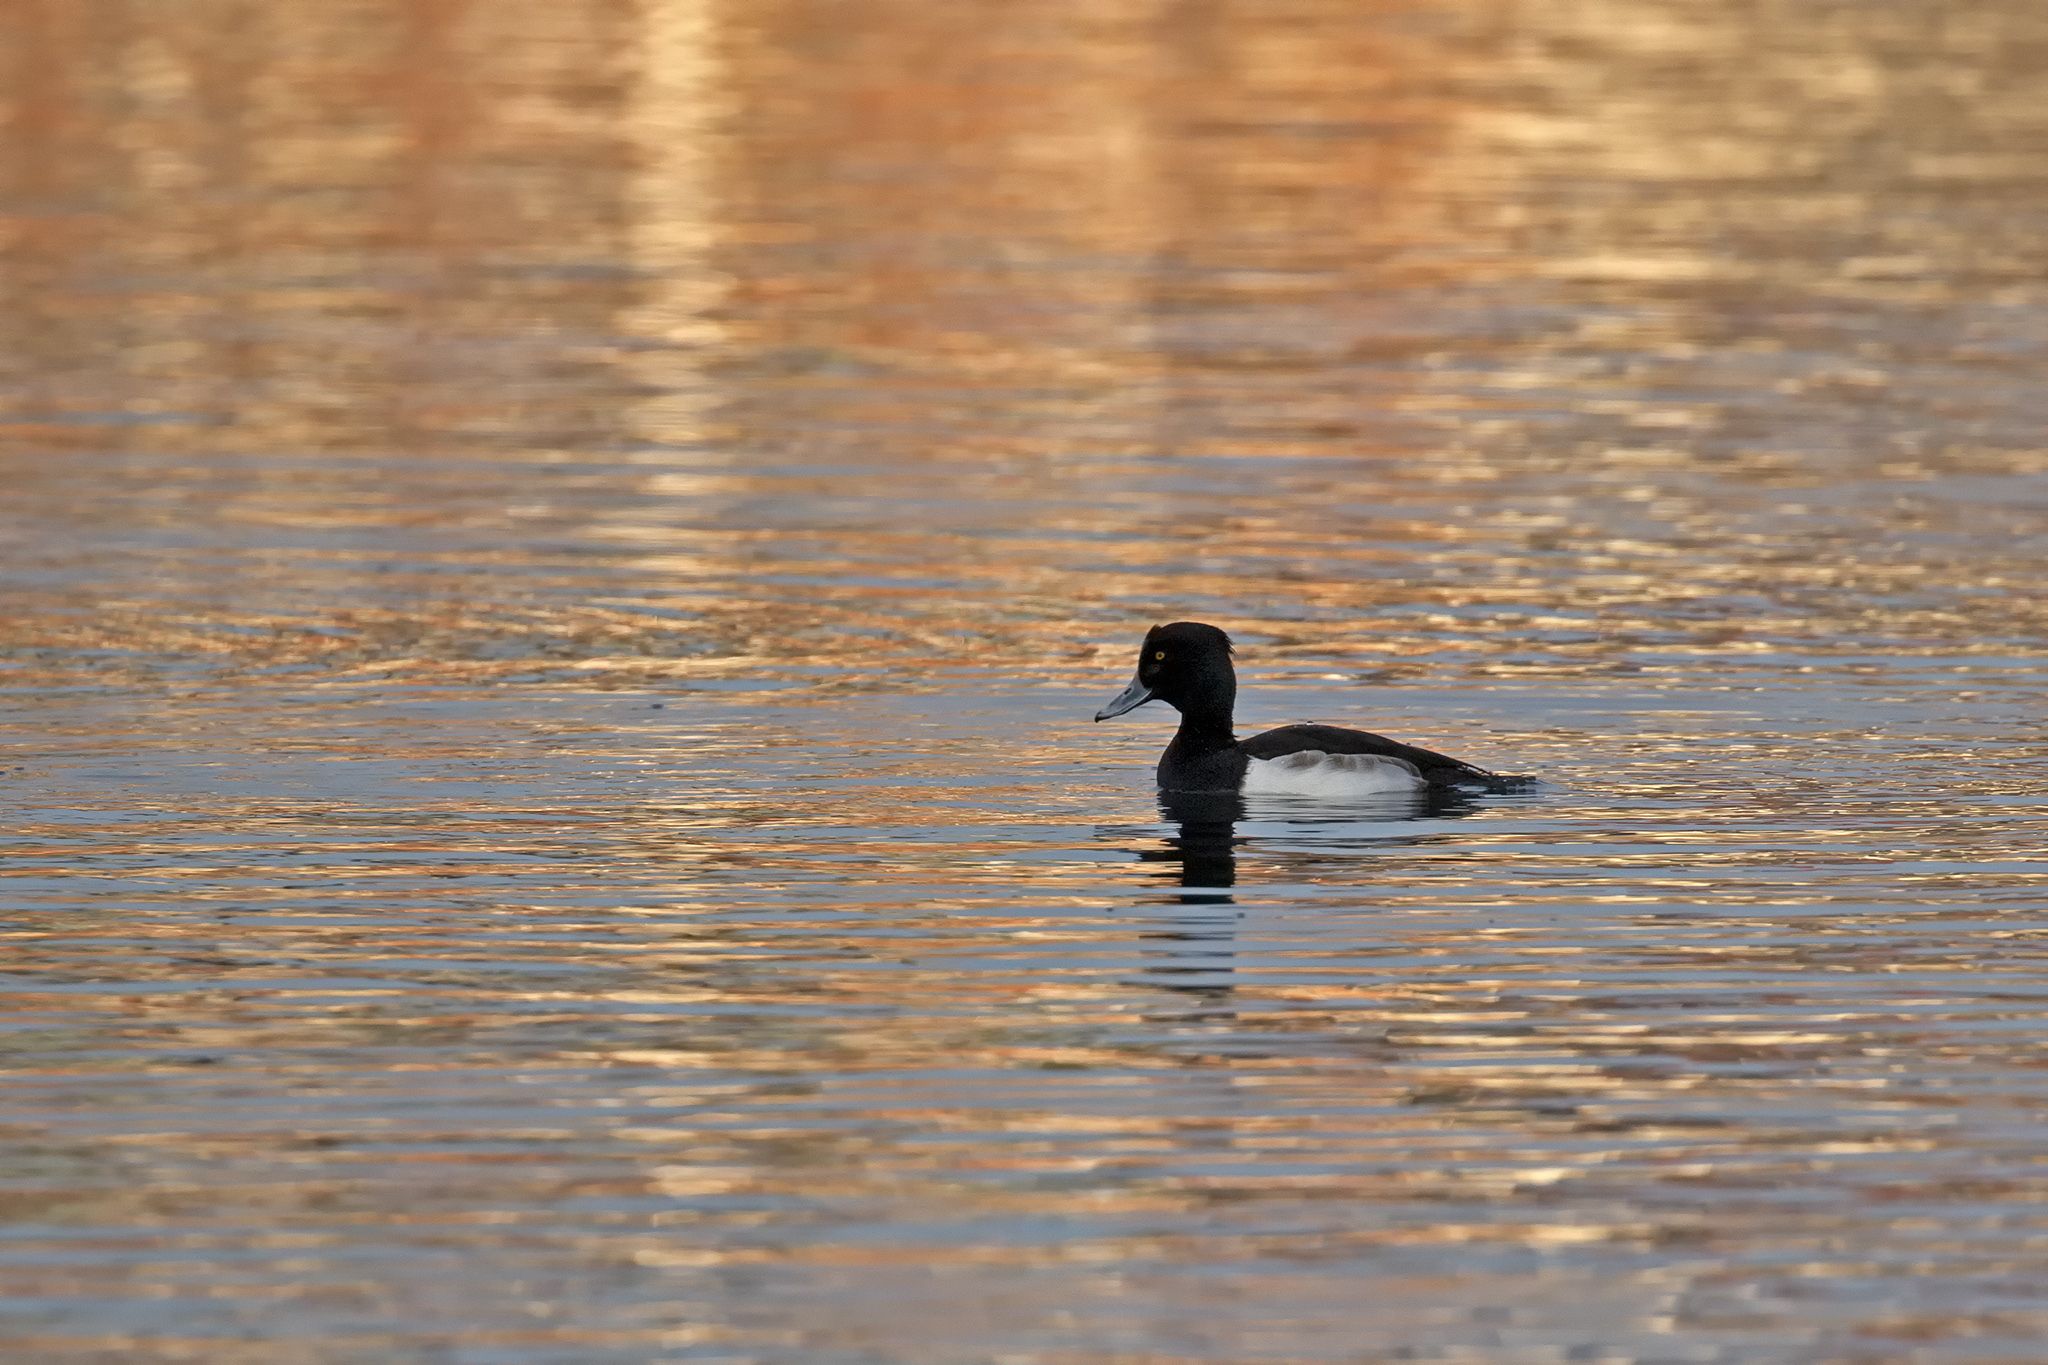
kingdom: Animalia
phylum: Chordata
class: Aves
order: Anseriformes
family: Anatidae
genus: Aythya
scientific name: Aythya fuligula
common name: Tufted duck
